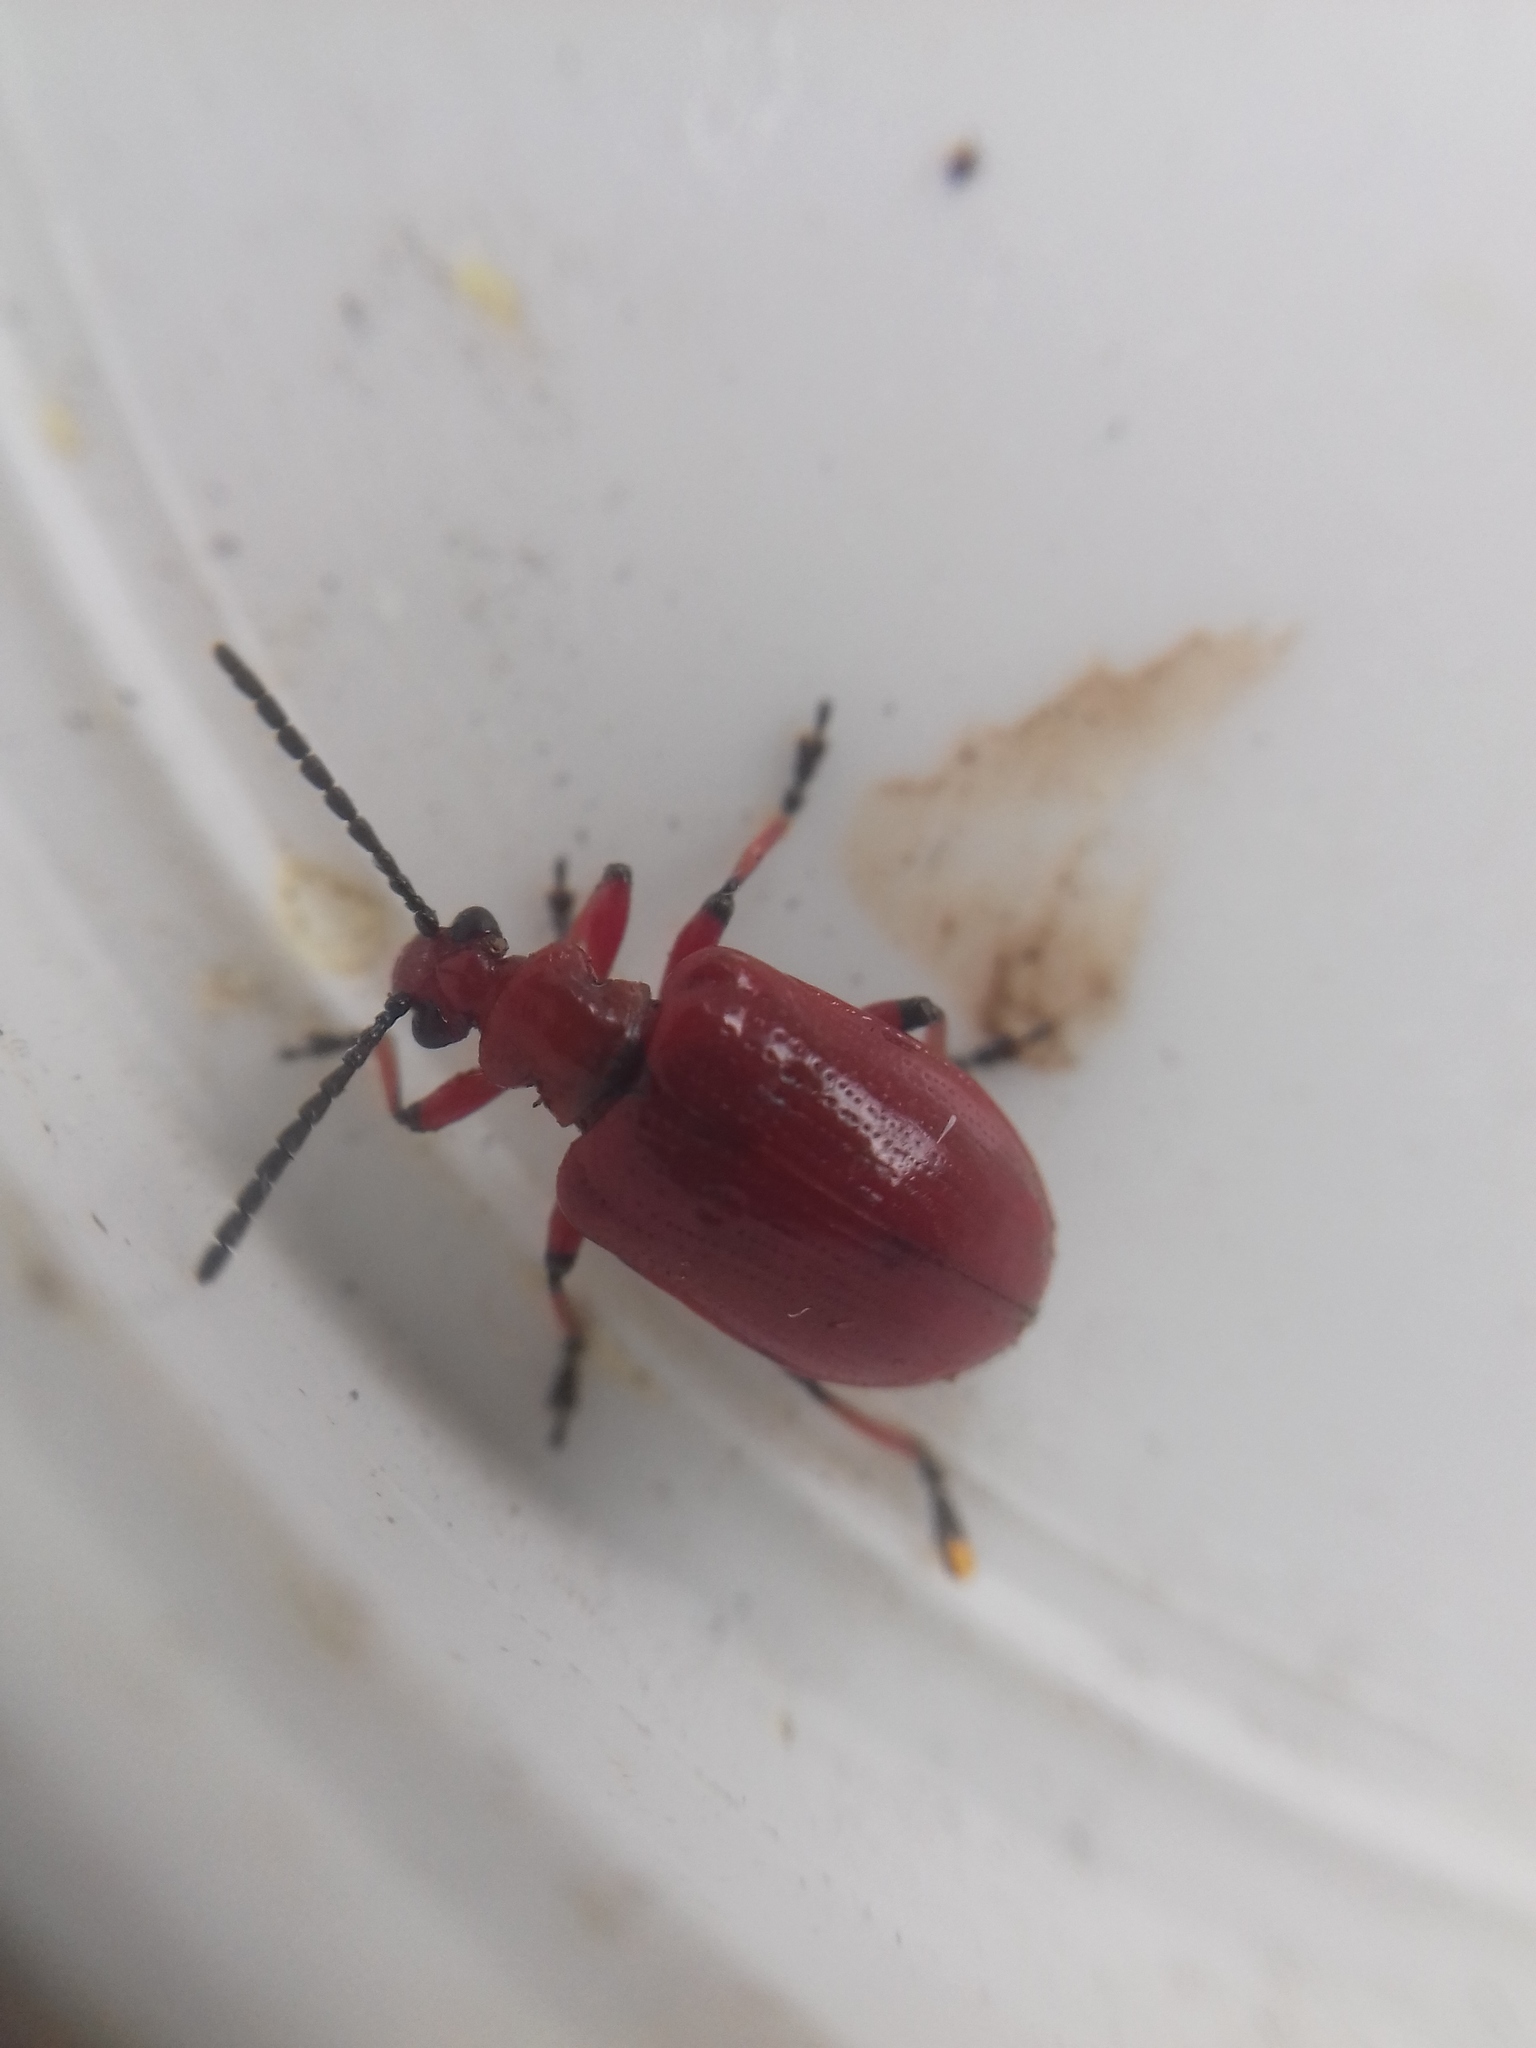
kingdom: Animalia
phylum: Arthropoda
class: Insecta
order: Coleoptera
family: Chrysomelidae
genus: Lilioceris
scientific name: Lilioceris merdigera
